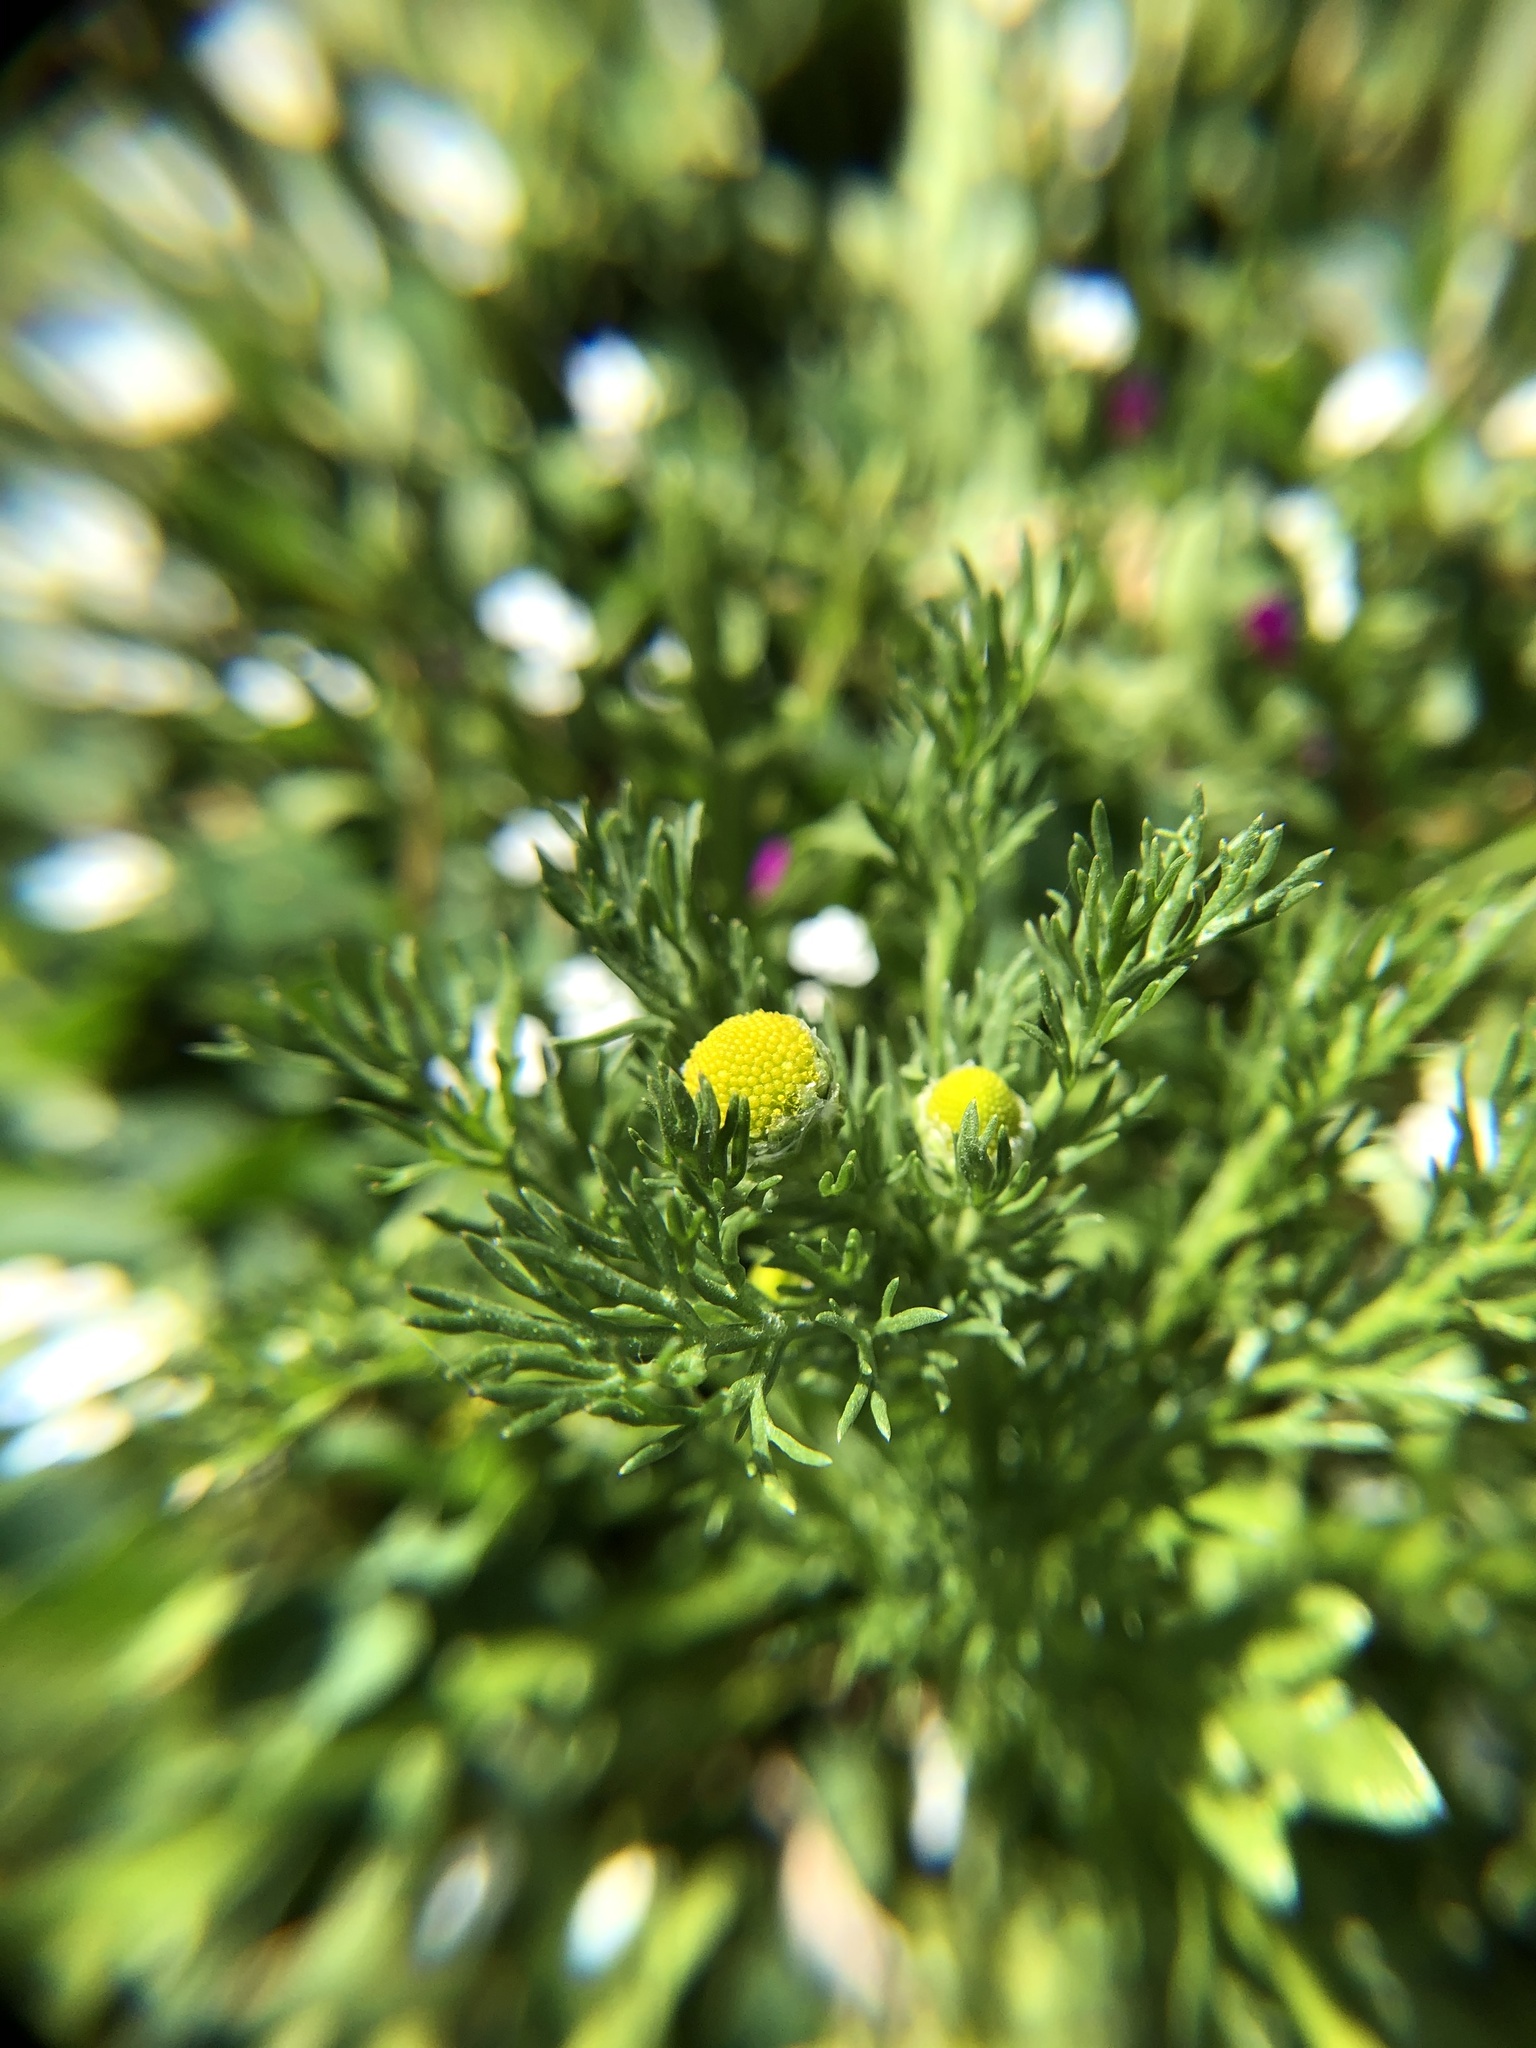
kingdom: Plantae
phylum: Tracheophyta
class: Magnoliopsida
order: Asterales
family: Asteraceae
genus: Matricaria
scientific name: Matricaria discoidea
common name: Disc mayweed
